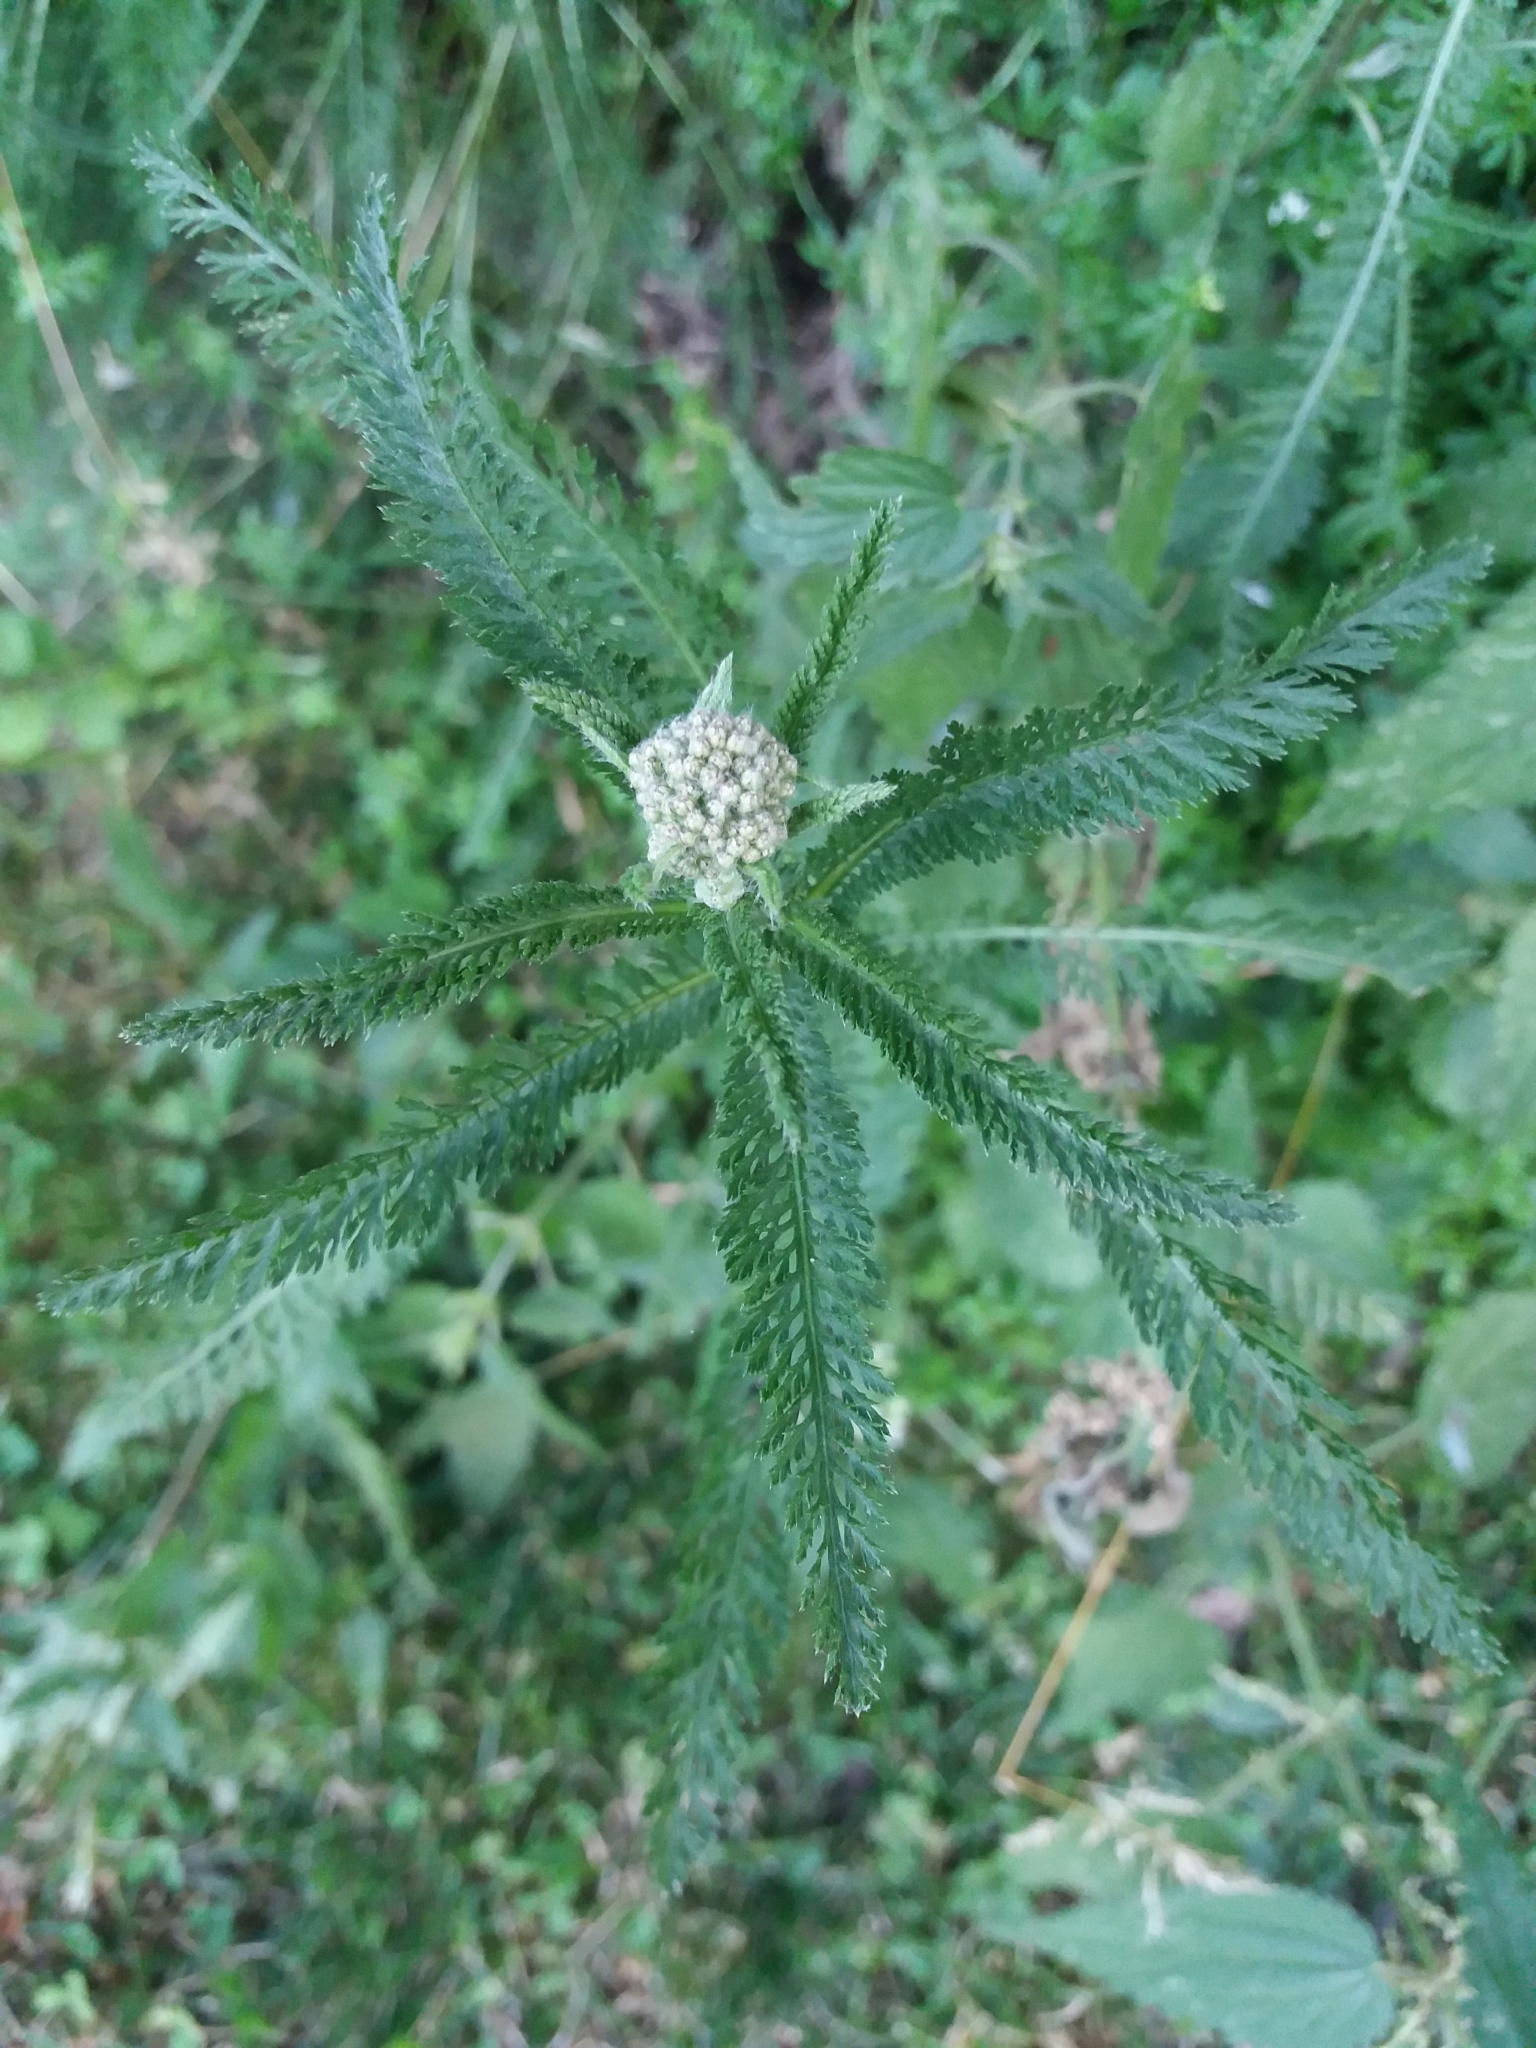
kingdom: Plantae
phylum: Tracheophyta
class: Magnoliopsida
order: Asterales
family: Asteraceae
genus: Achillea
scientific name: Achillea millefolium
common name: Yarrow
